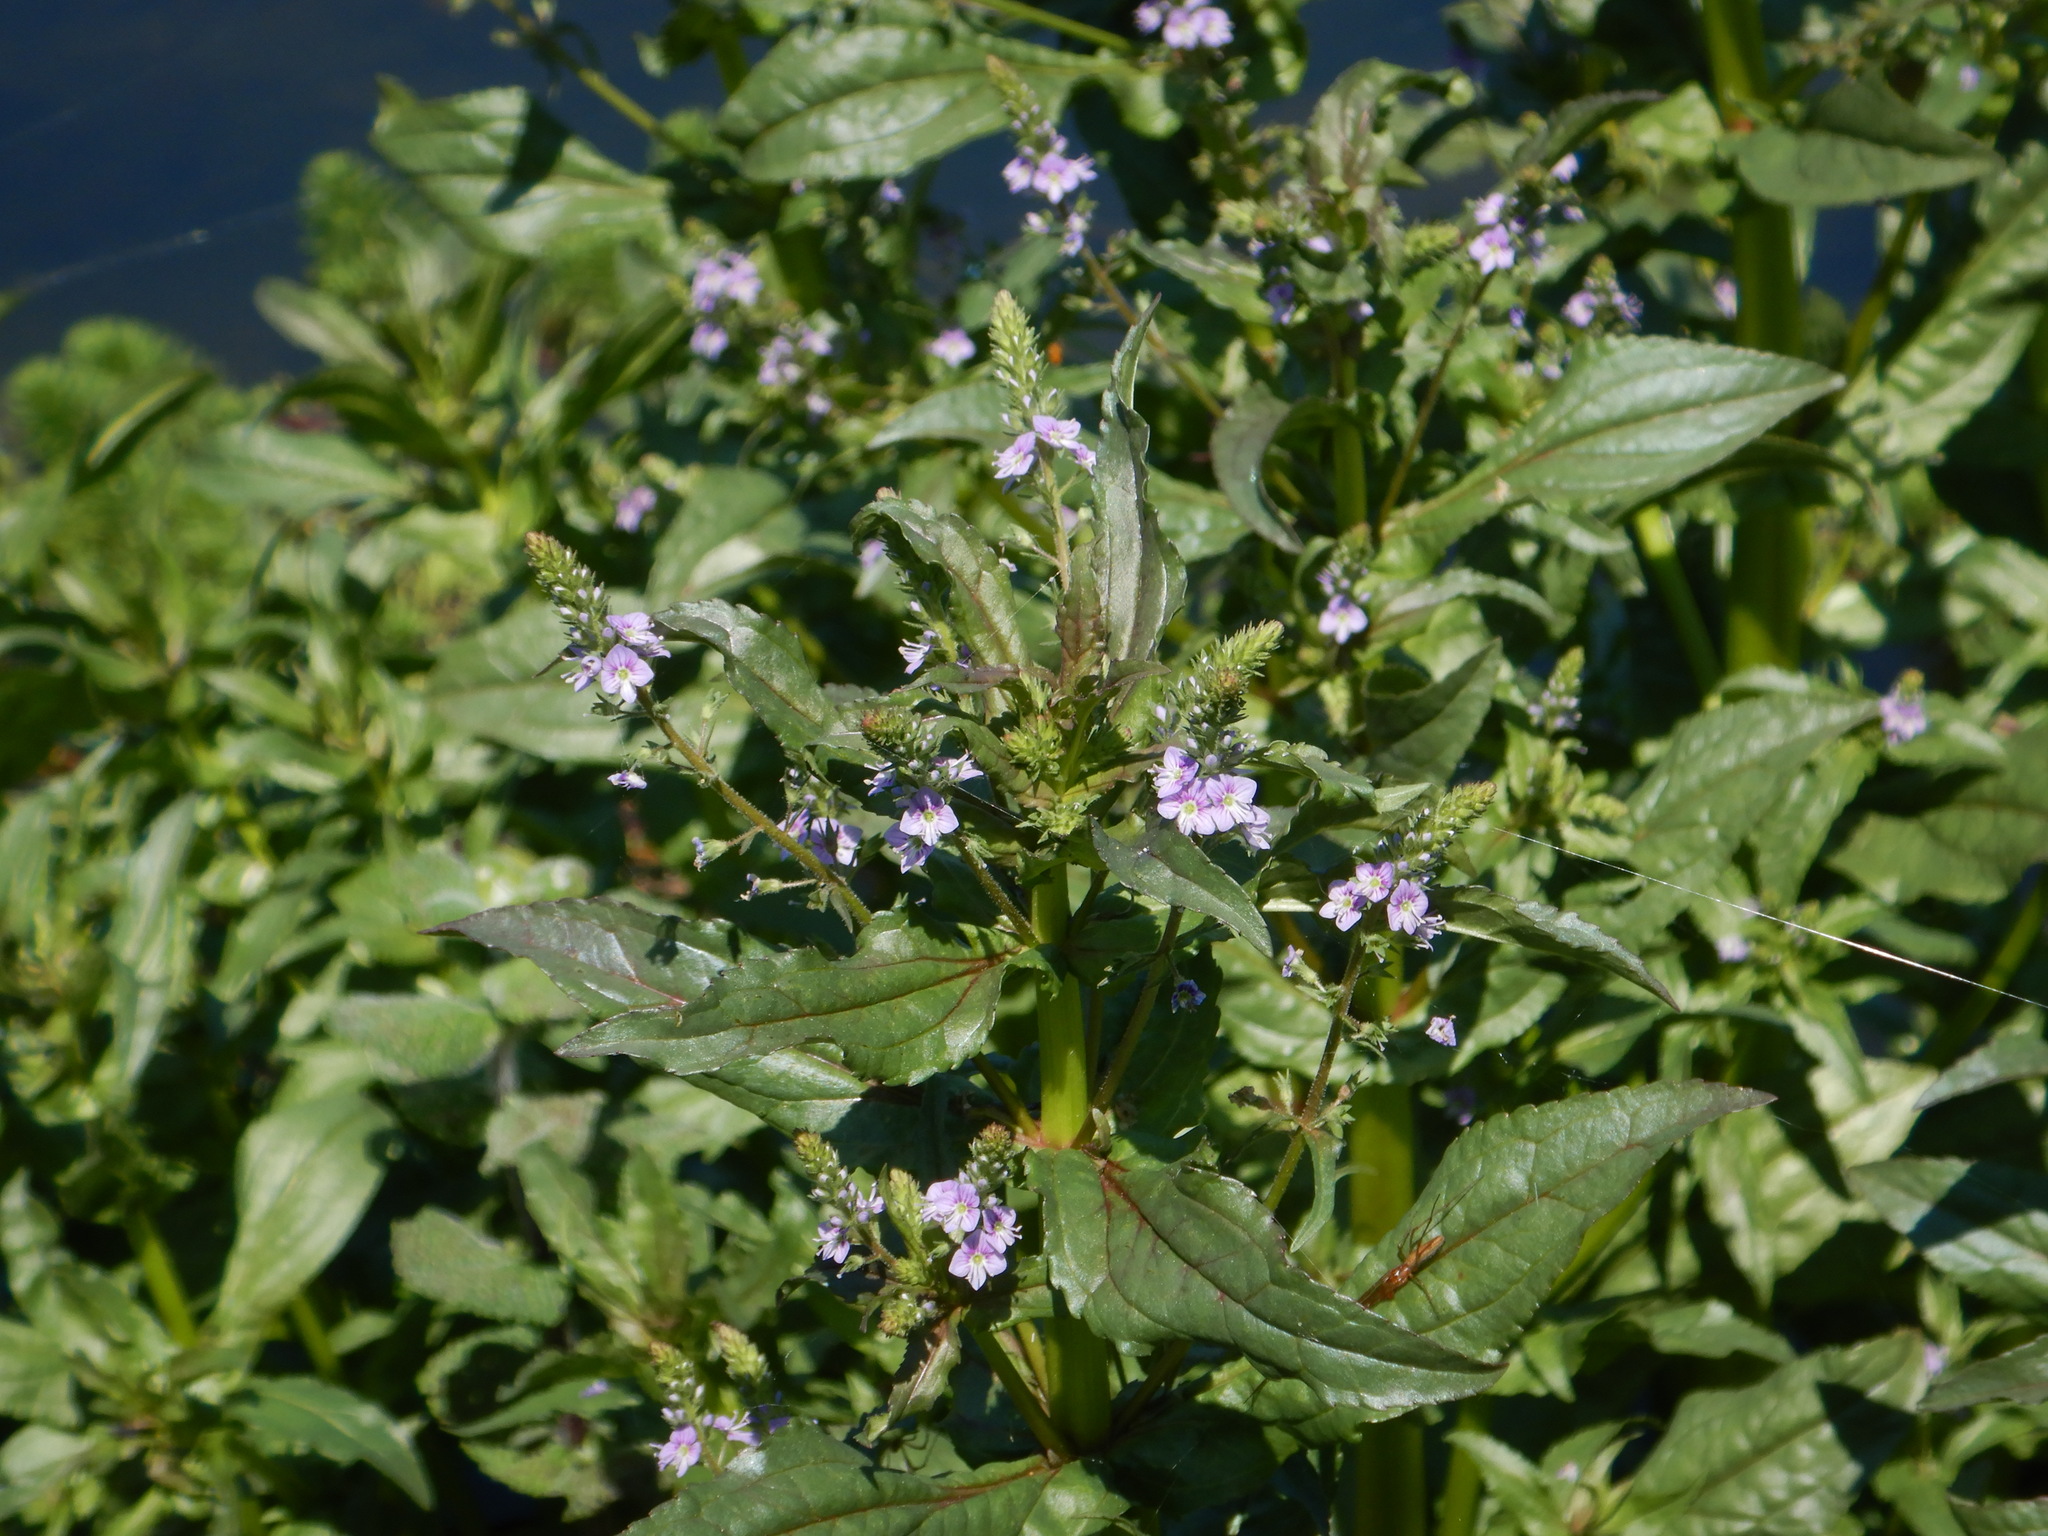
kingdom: Plantae
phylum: Tracheophyta
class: Magnoliopsida
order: Lamiales
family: Plantaginaceae
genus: Veronica
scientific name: Veronica anagallis-aquatica
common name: Water speedwell
